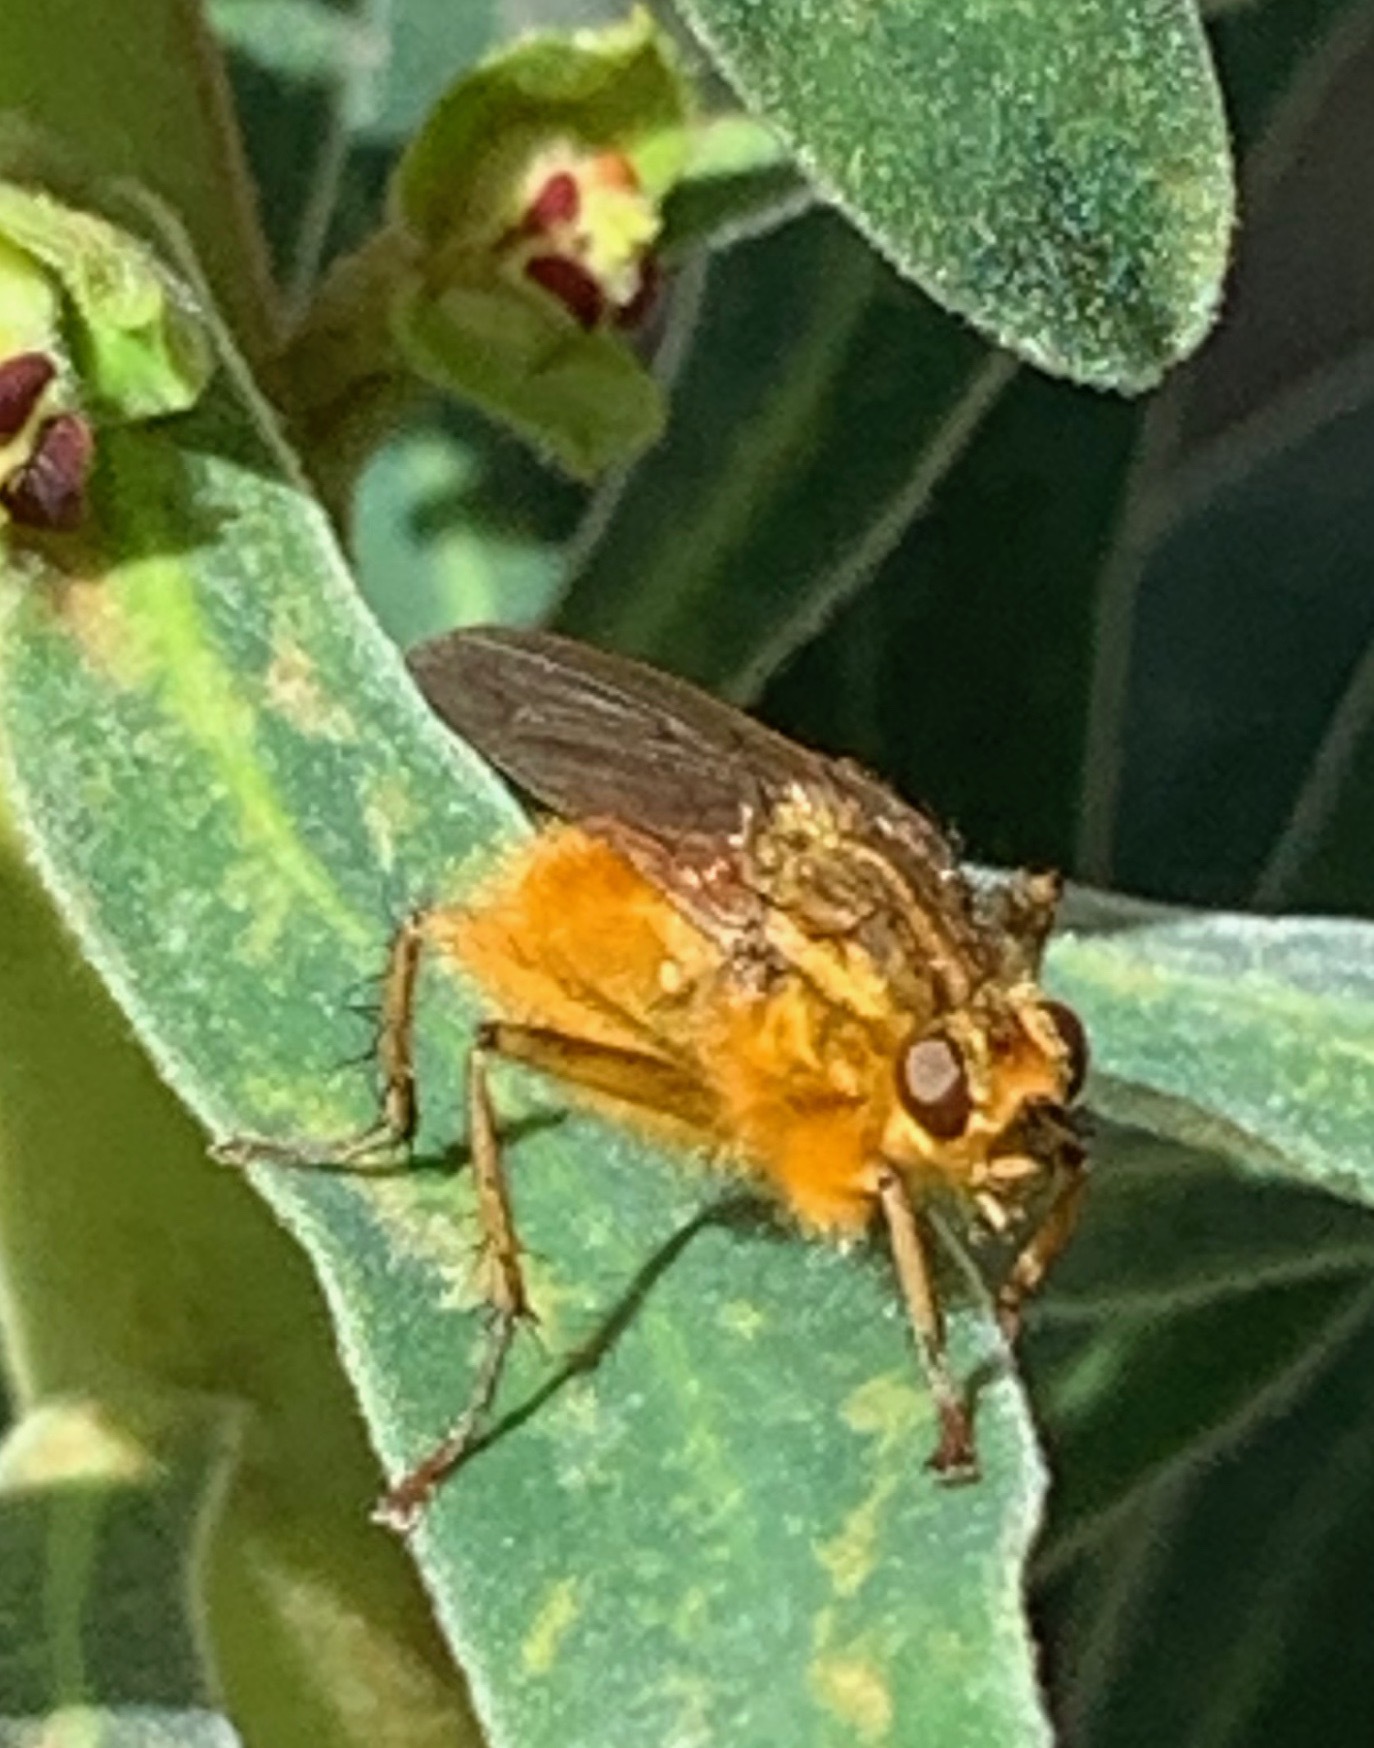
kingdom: Animalia
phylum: Arthropoda
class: Insecta
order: Diptera
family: Scathophagidae
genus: Scathophaga
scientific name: Scathophaga stercoraria
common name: Yellow dung fly
